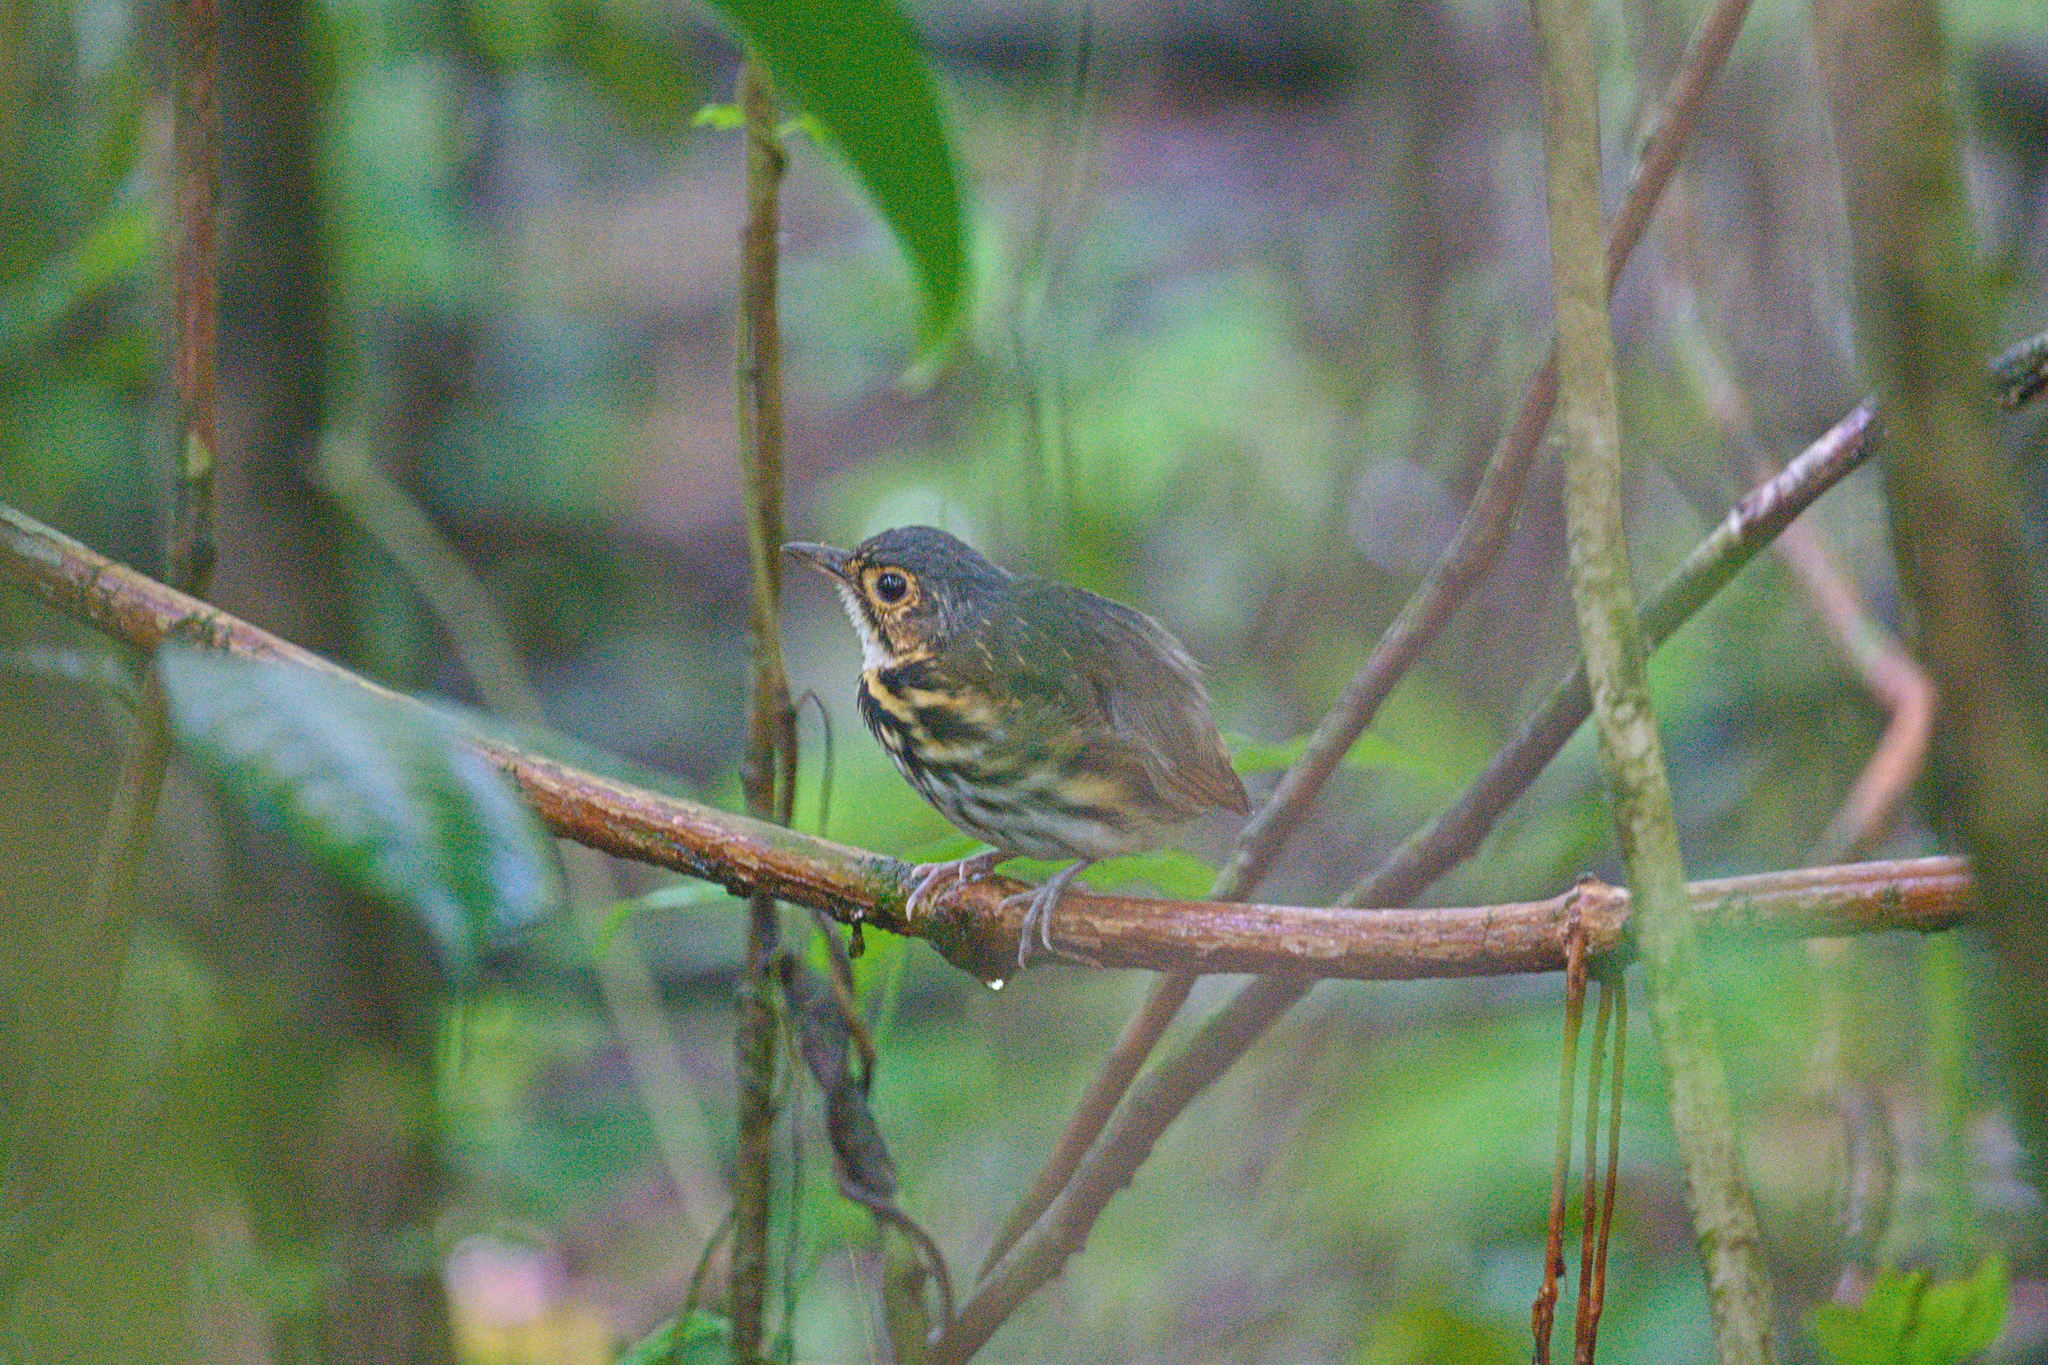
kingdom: Animalia
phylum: Chordata
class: Aves
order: Passeriformes
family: Grallariidae
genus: Hylopezus
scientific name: Hylopezus perspicillatus
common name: Streak-chested antpitta
